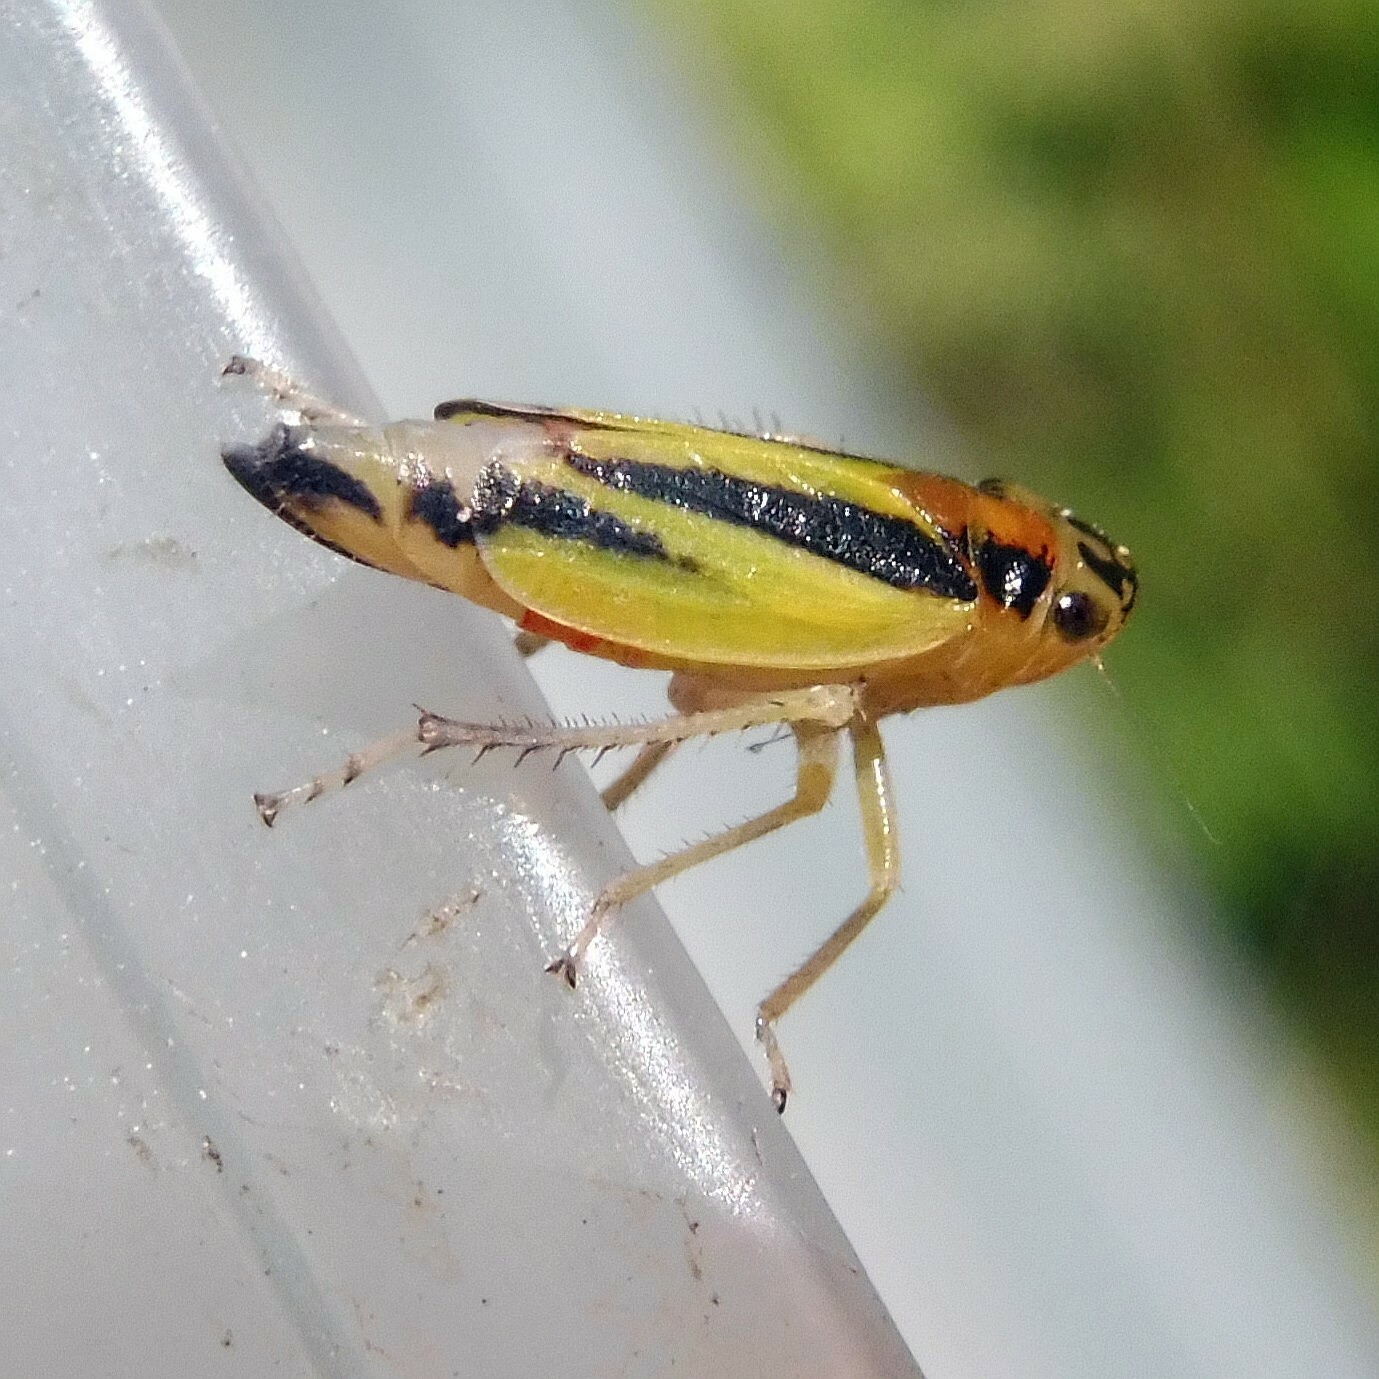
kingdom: Animalia
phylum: Arthropoda
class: Insecta
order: Hemiptera
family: Cicadellidae
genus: Evacanthus
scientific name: Evacanthus interruptus
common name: Leafhopper
